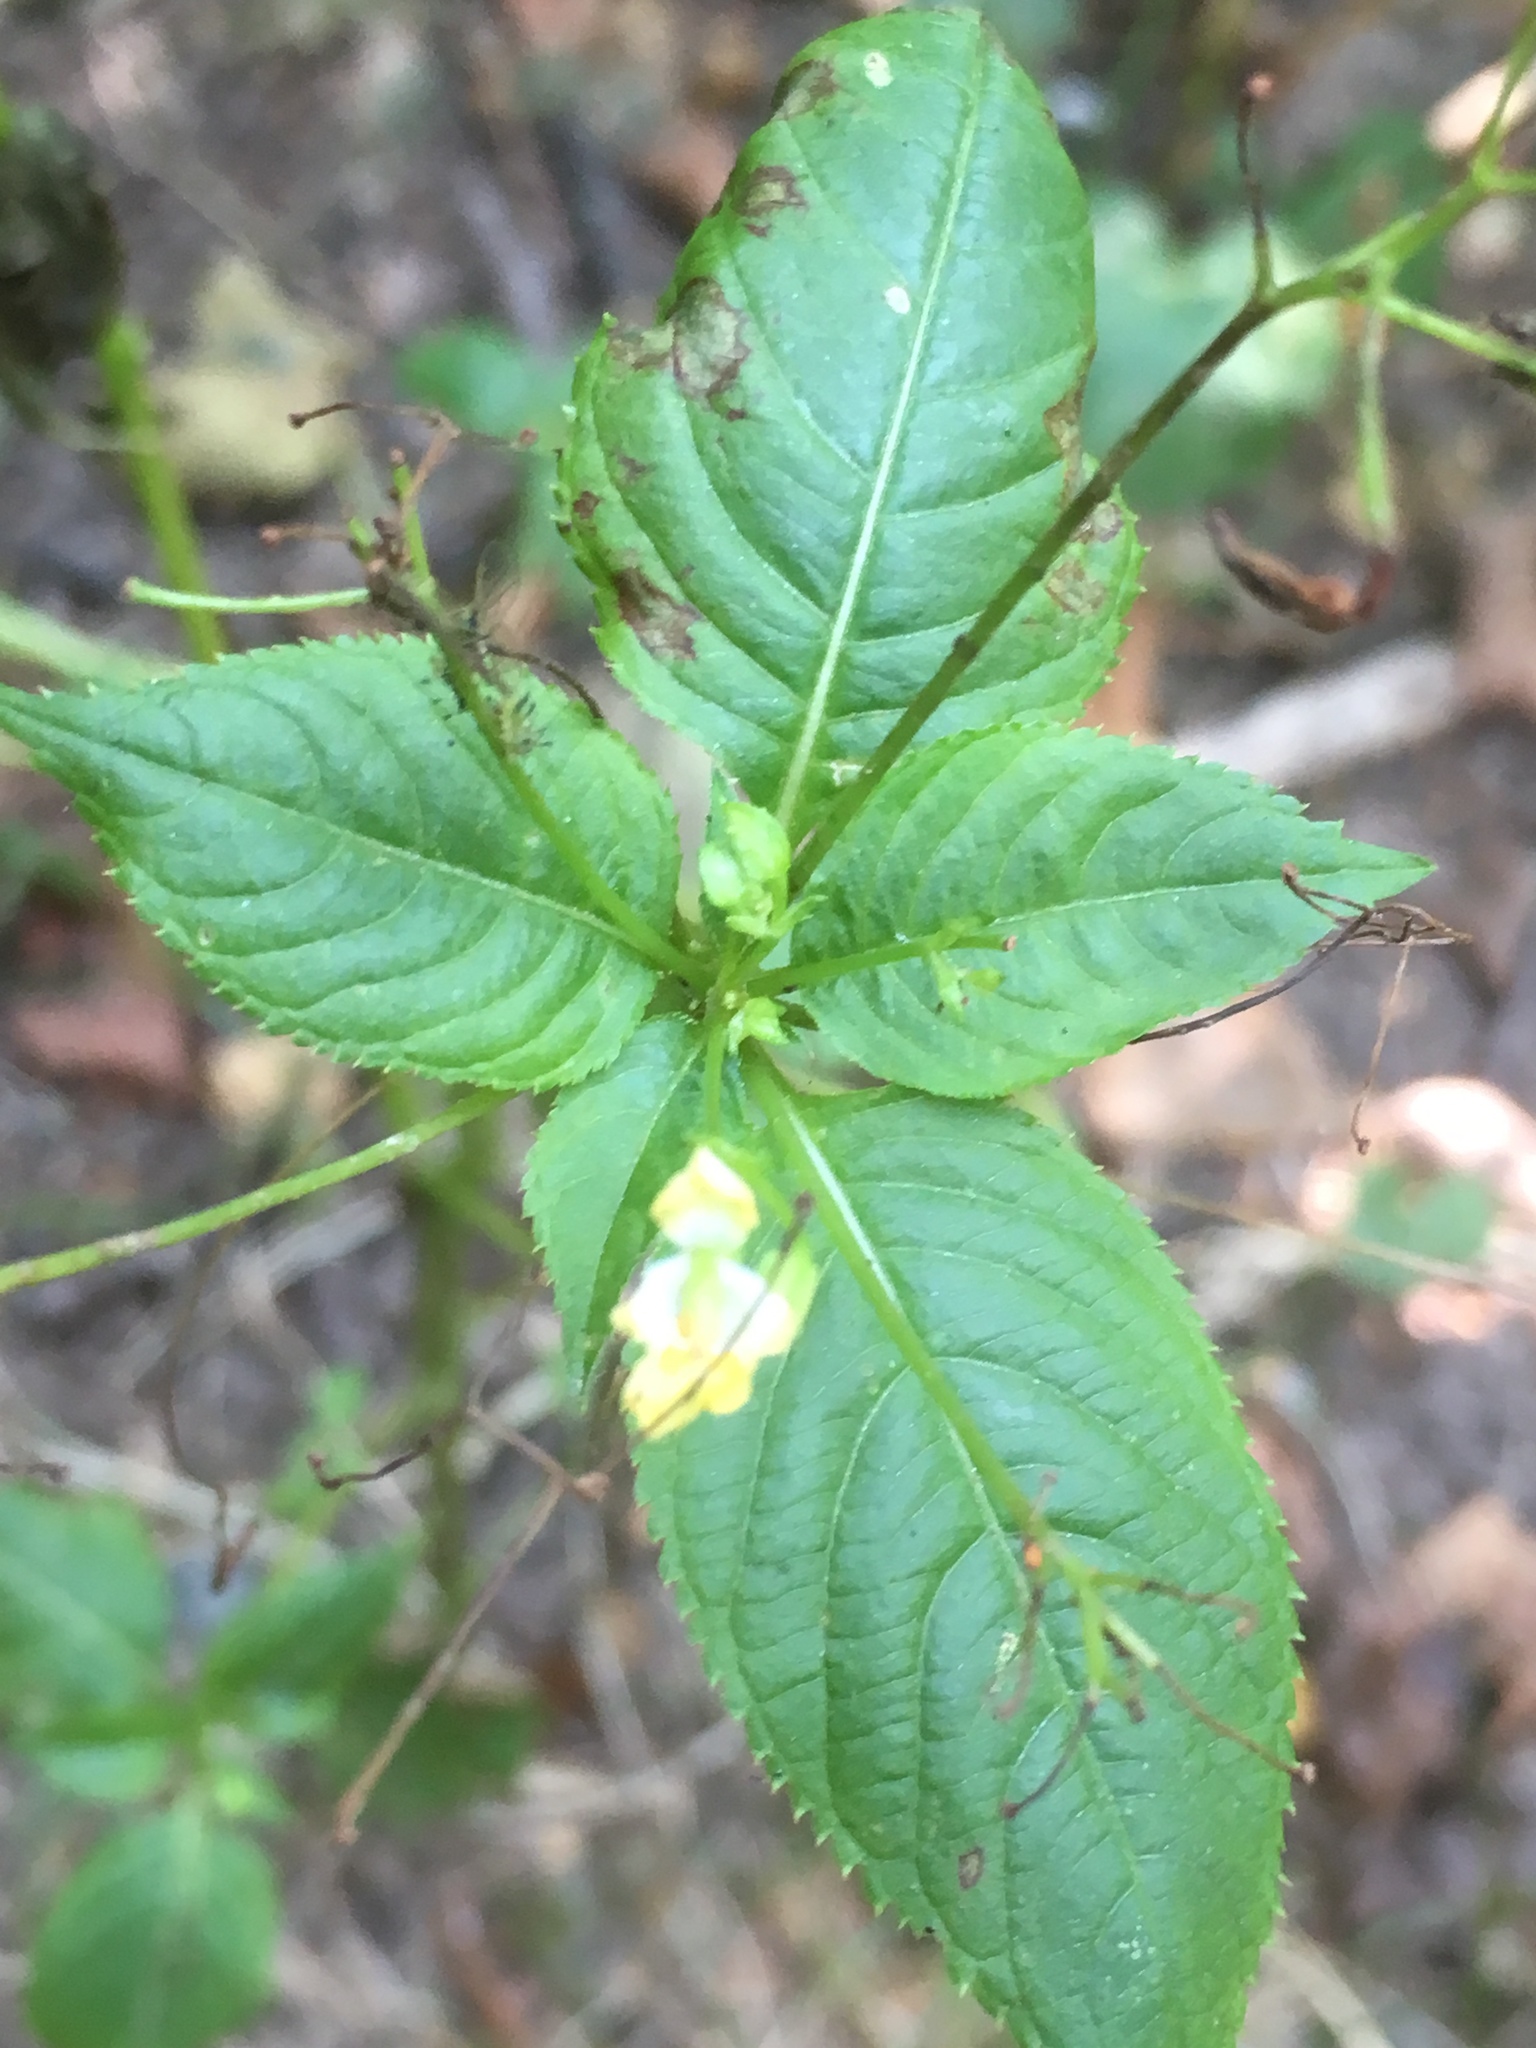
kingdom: Plantae
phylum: Tracheophyta
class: Magnoliopsida
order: Ericales
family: Balsaminaceae
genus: Impatiens
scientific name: Impatiens parviflora
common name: Small balsam
